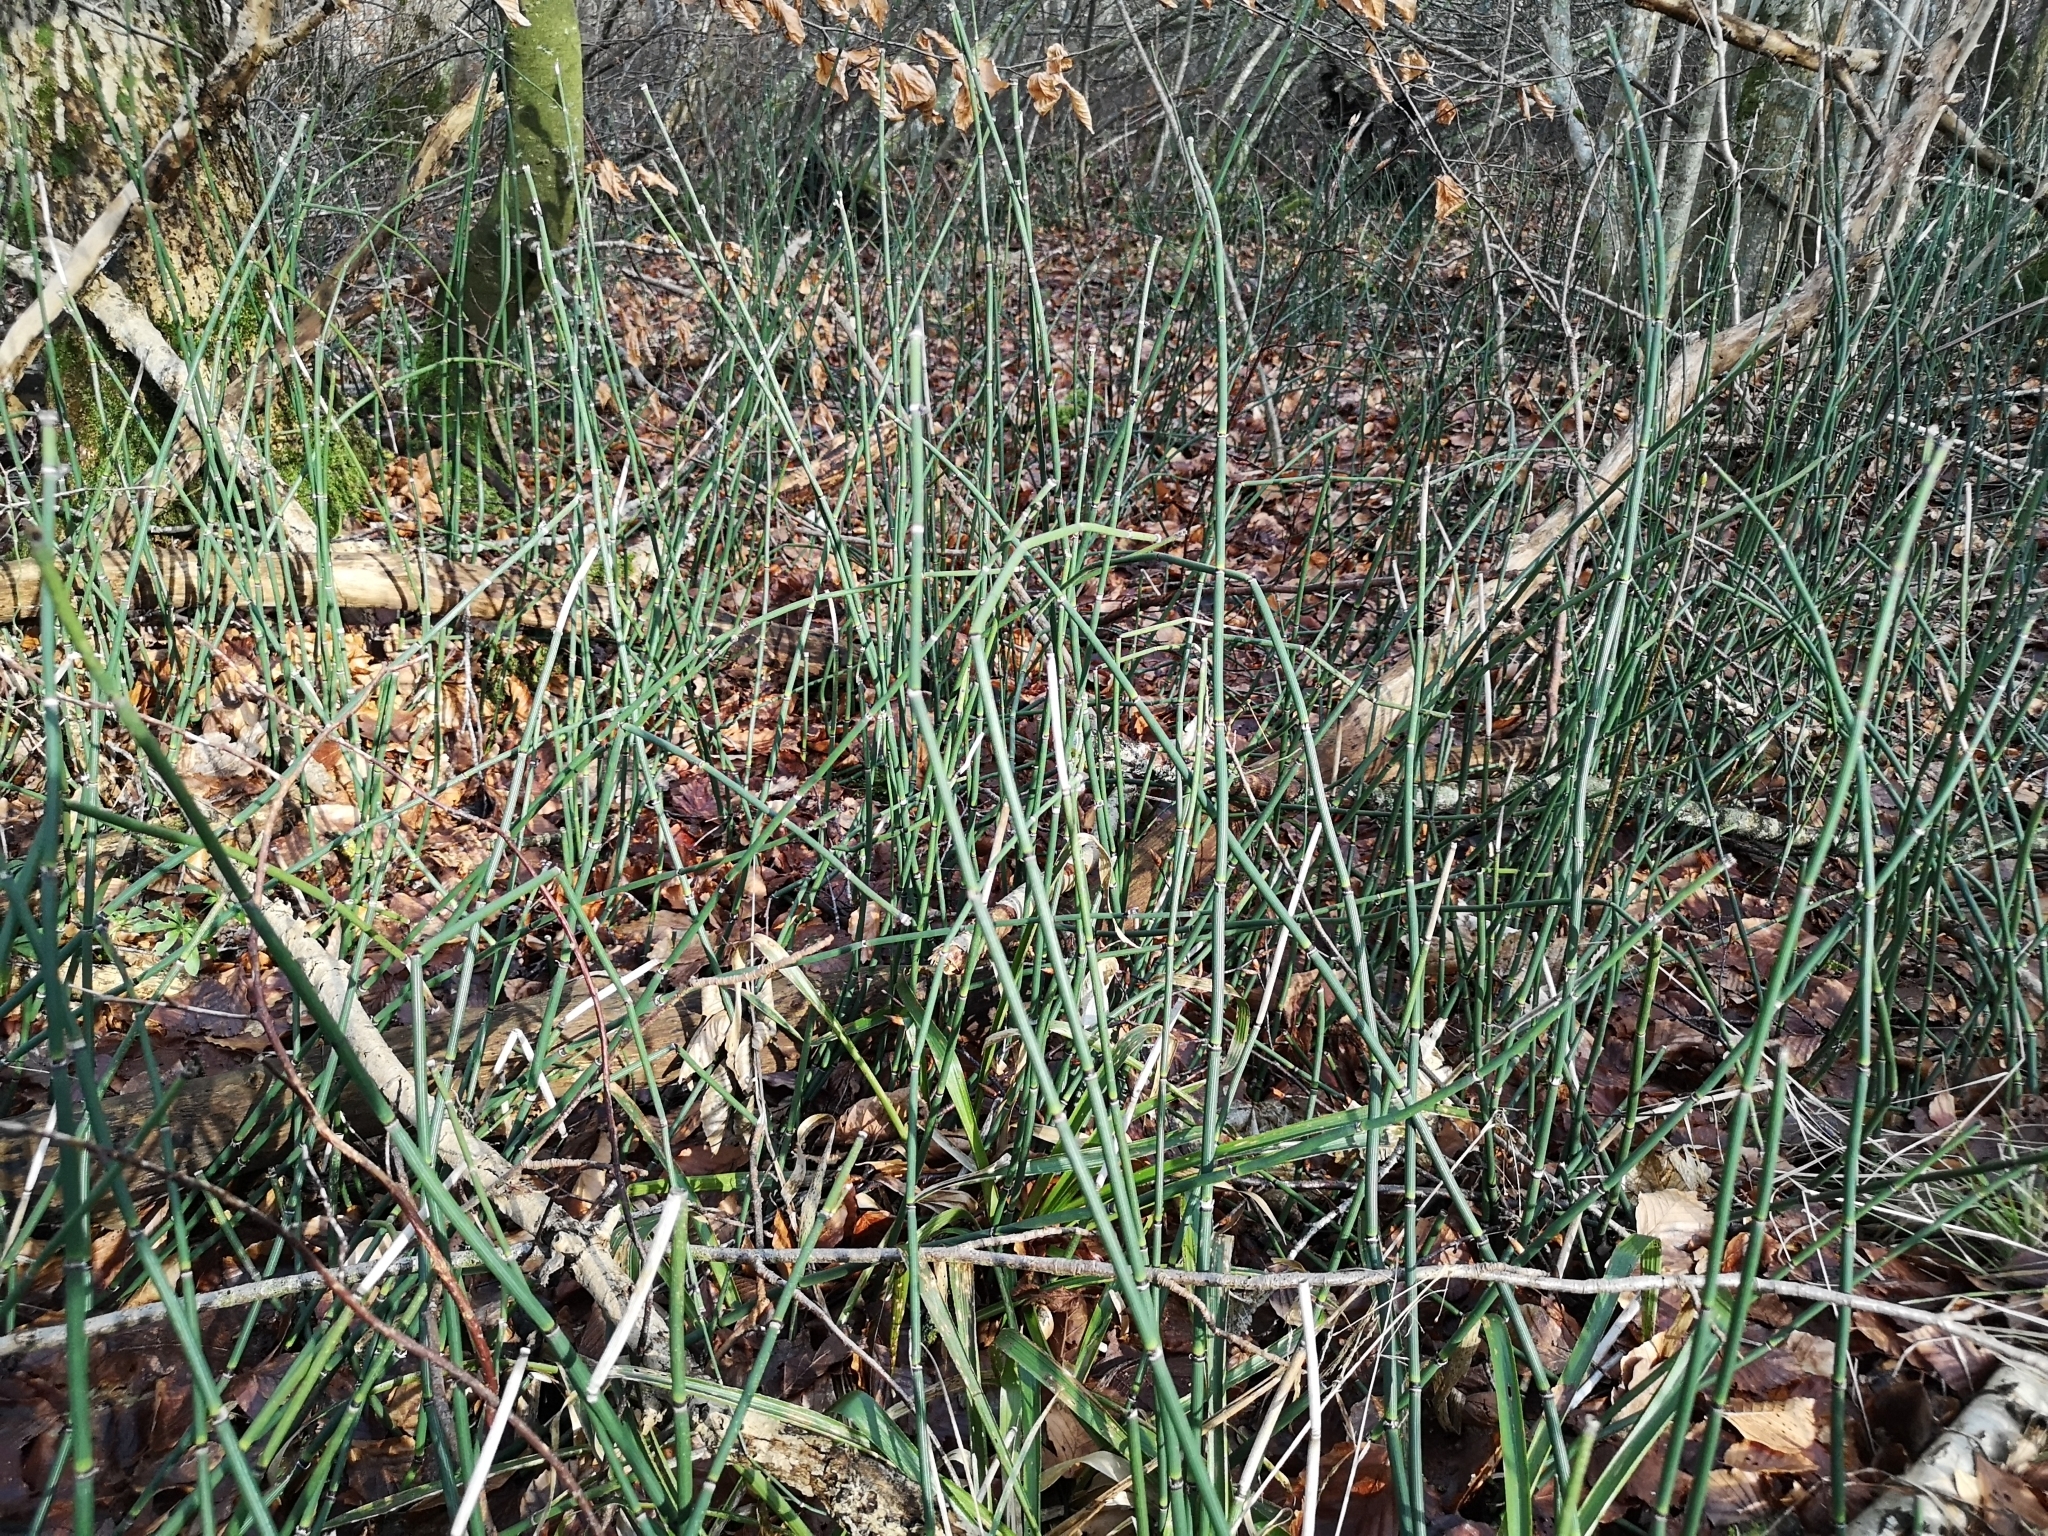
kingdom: Plantae
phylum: Tracheophyta
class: Polypodiopsida
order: Equisetales
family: Equisetaceae
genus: Equisetum
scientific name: Equisetum hyemale
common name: Rough horsetail
